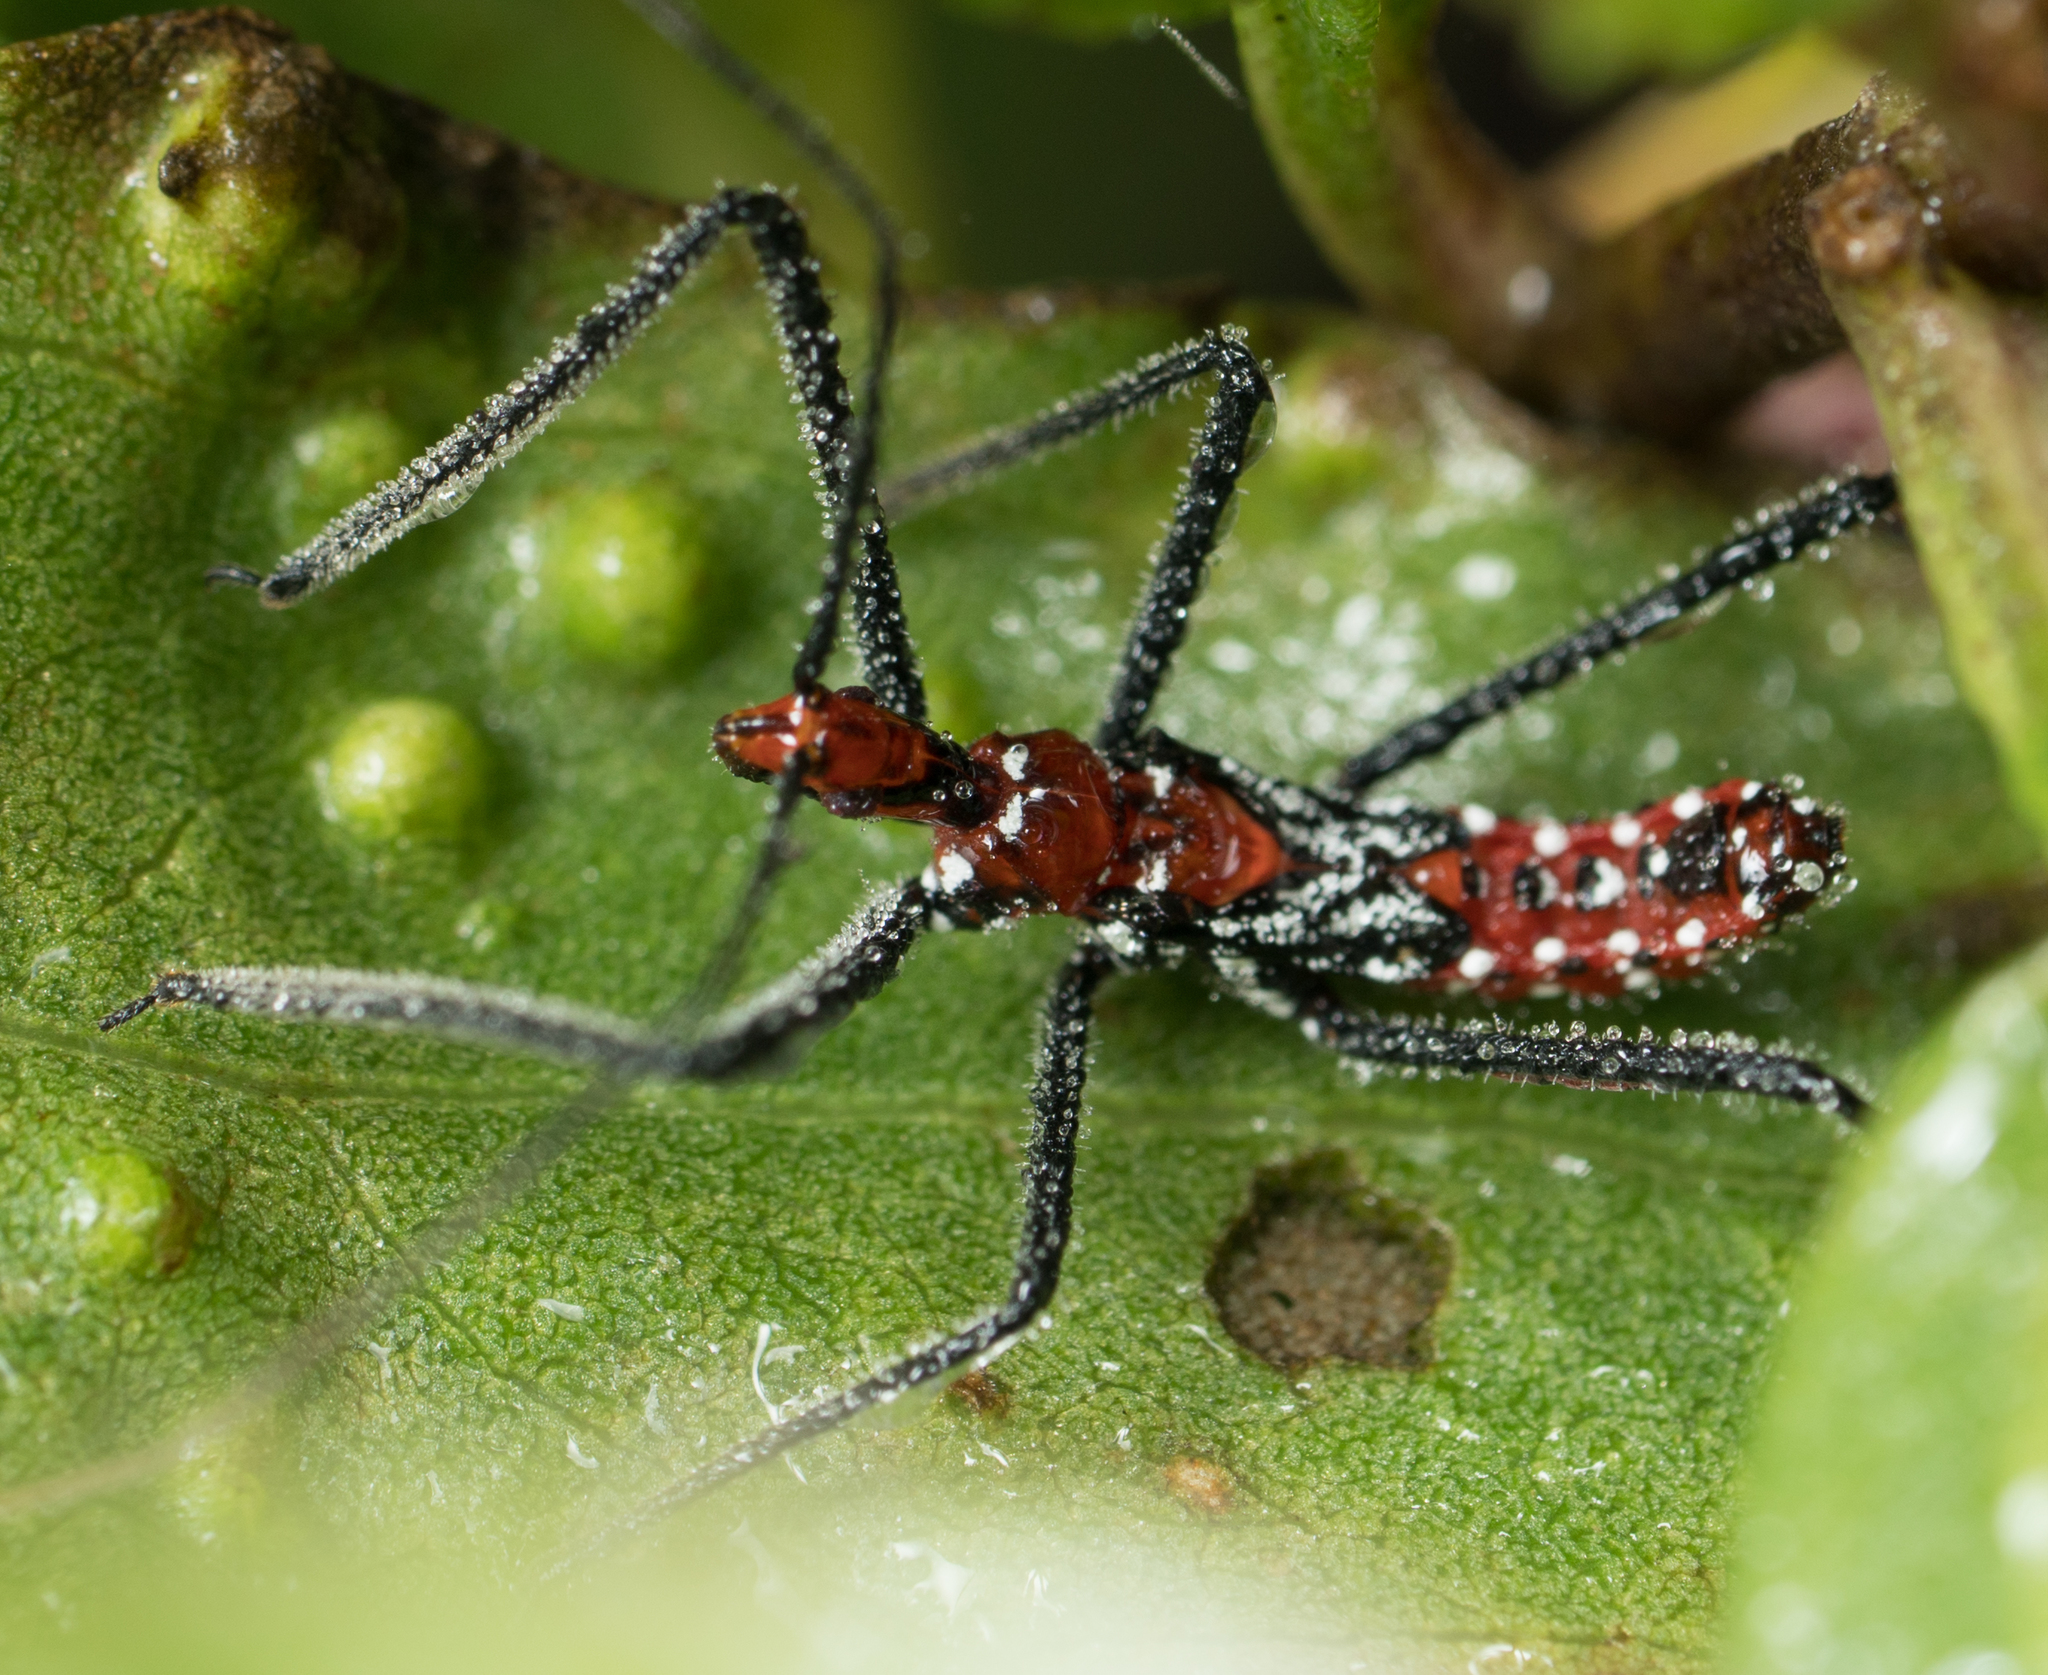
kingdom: Animalia
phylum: Arthropoda
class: Insecta
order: Hemiptera
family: Reduviidae
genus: Zelus
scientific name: Zelus longipes
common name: Milkweed assassin bug
